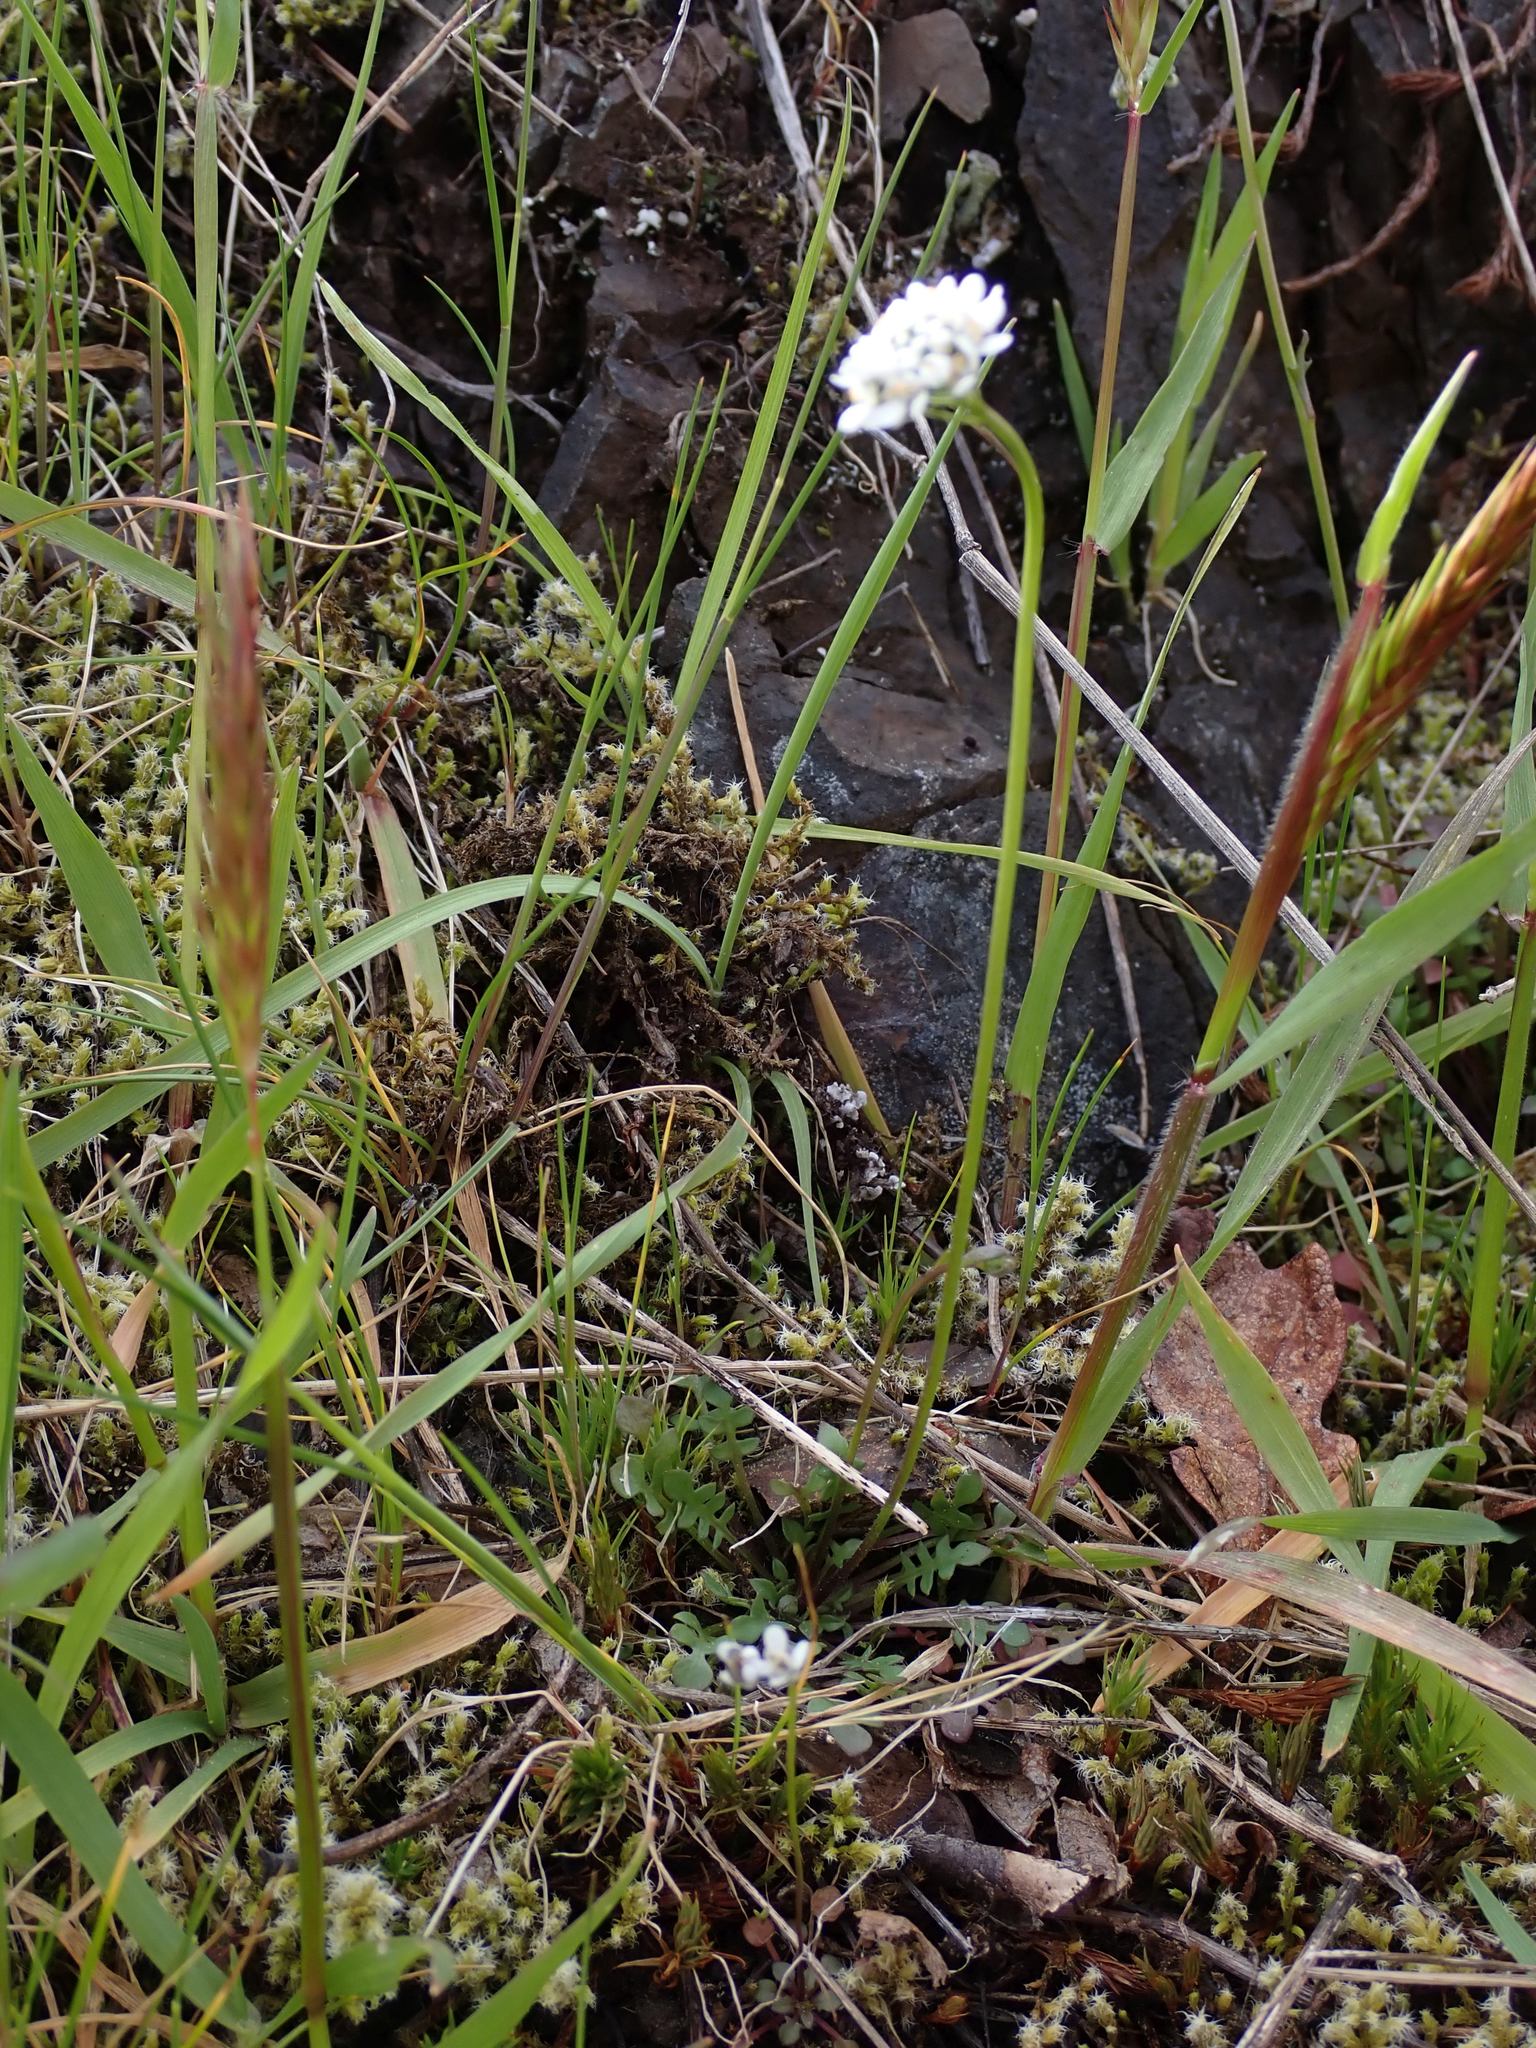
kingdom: Plantae
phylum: Tracheophyta
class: Magnoliopsida
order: Brassicales
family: Brassicaceae
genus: Teesdalia
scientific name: Teesdalia nudicaulis
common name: Shepherd's cress
